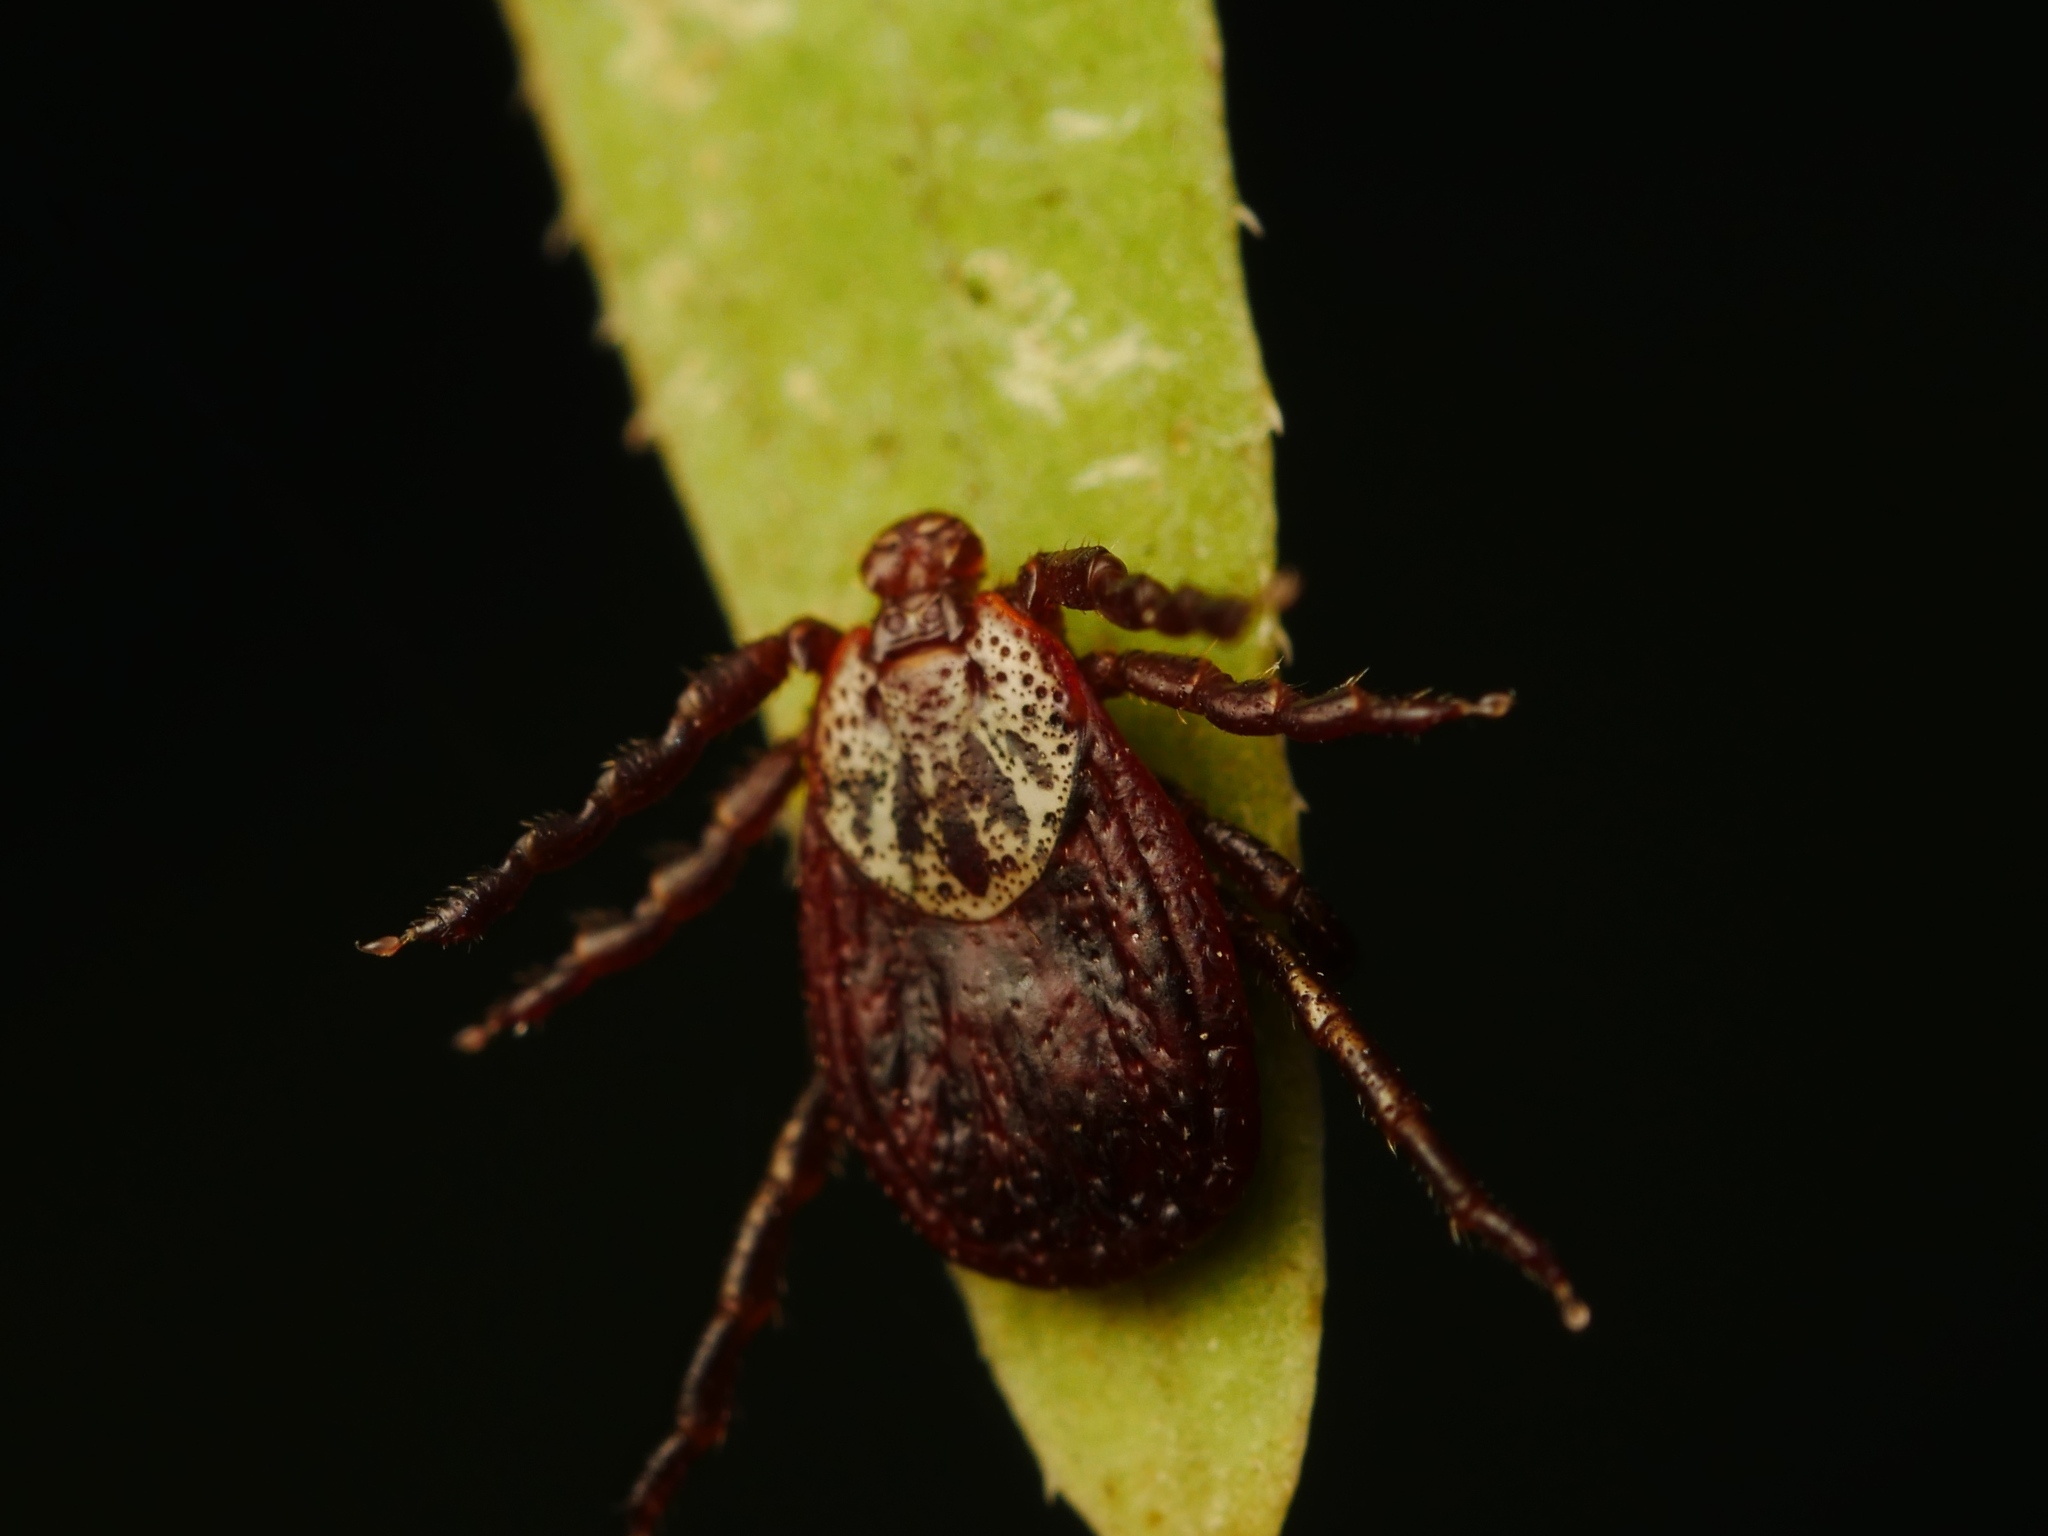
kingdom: Animalia
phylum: Arthropoda
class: Arachnida
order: Ixodida
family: Ixodidae
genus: Dermacentor
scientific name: Dermacentor reticulatus
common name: Ornate cow tick
